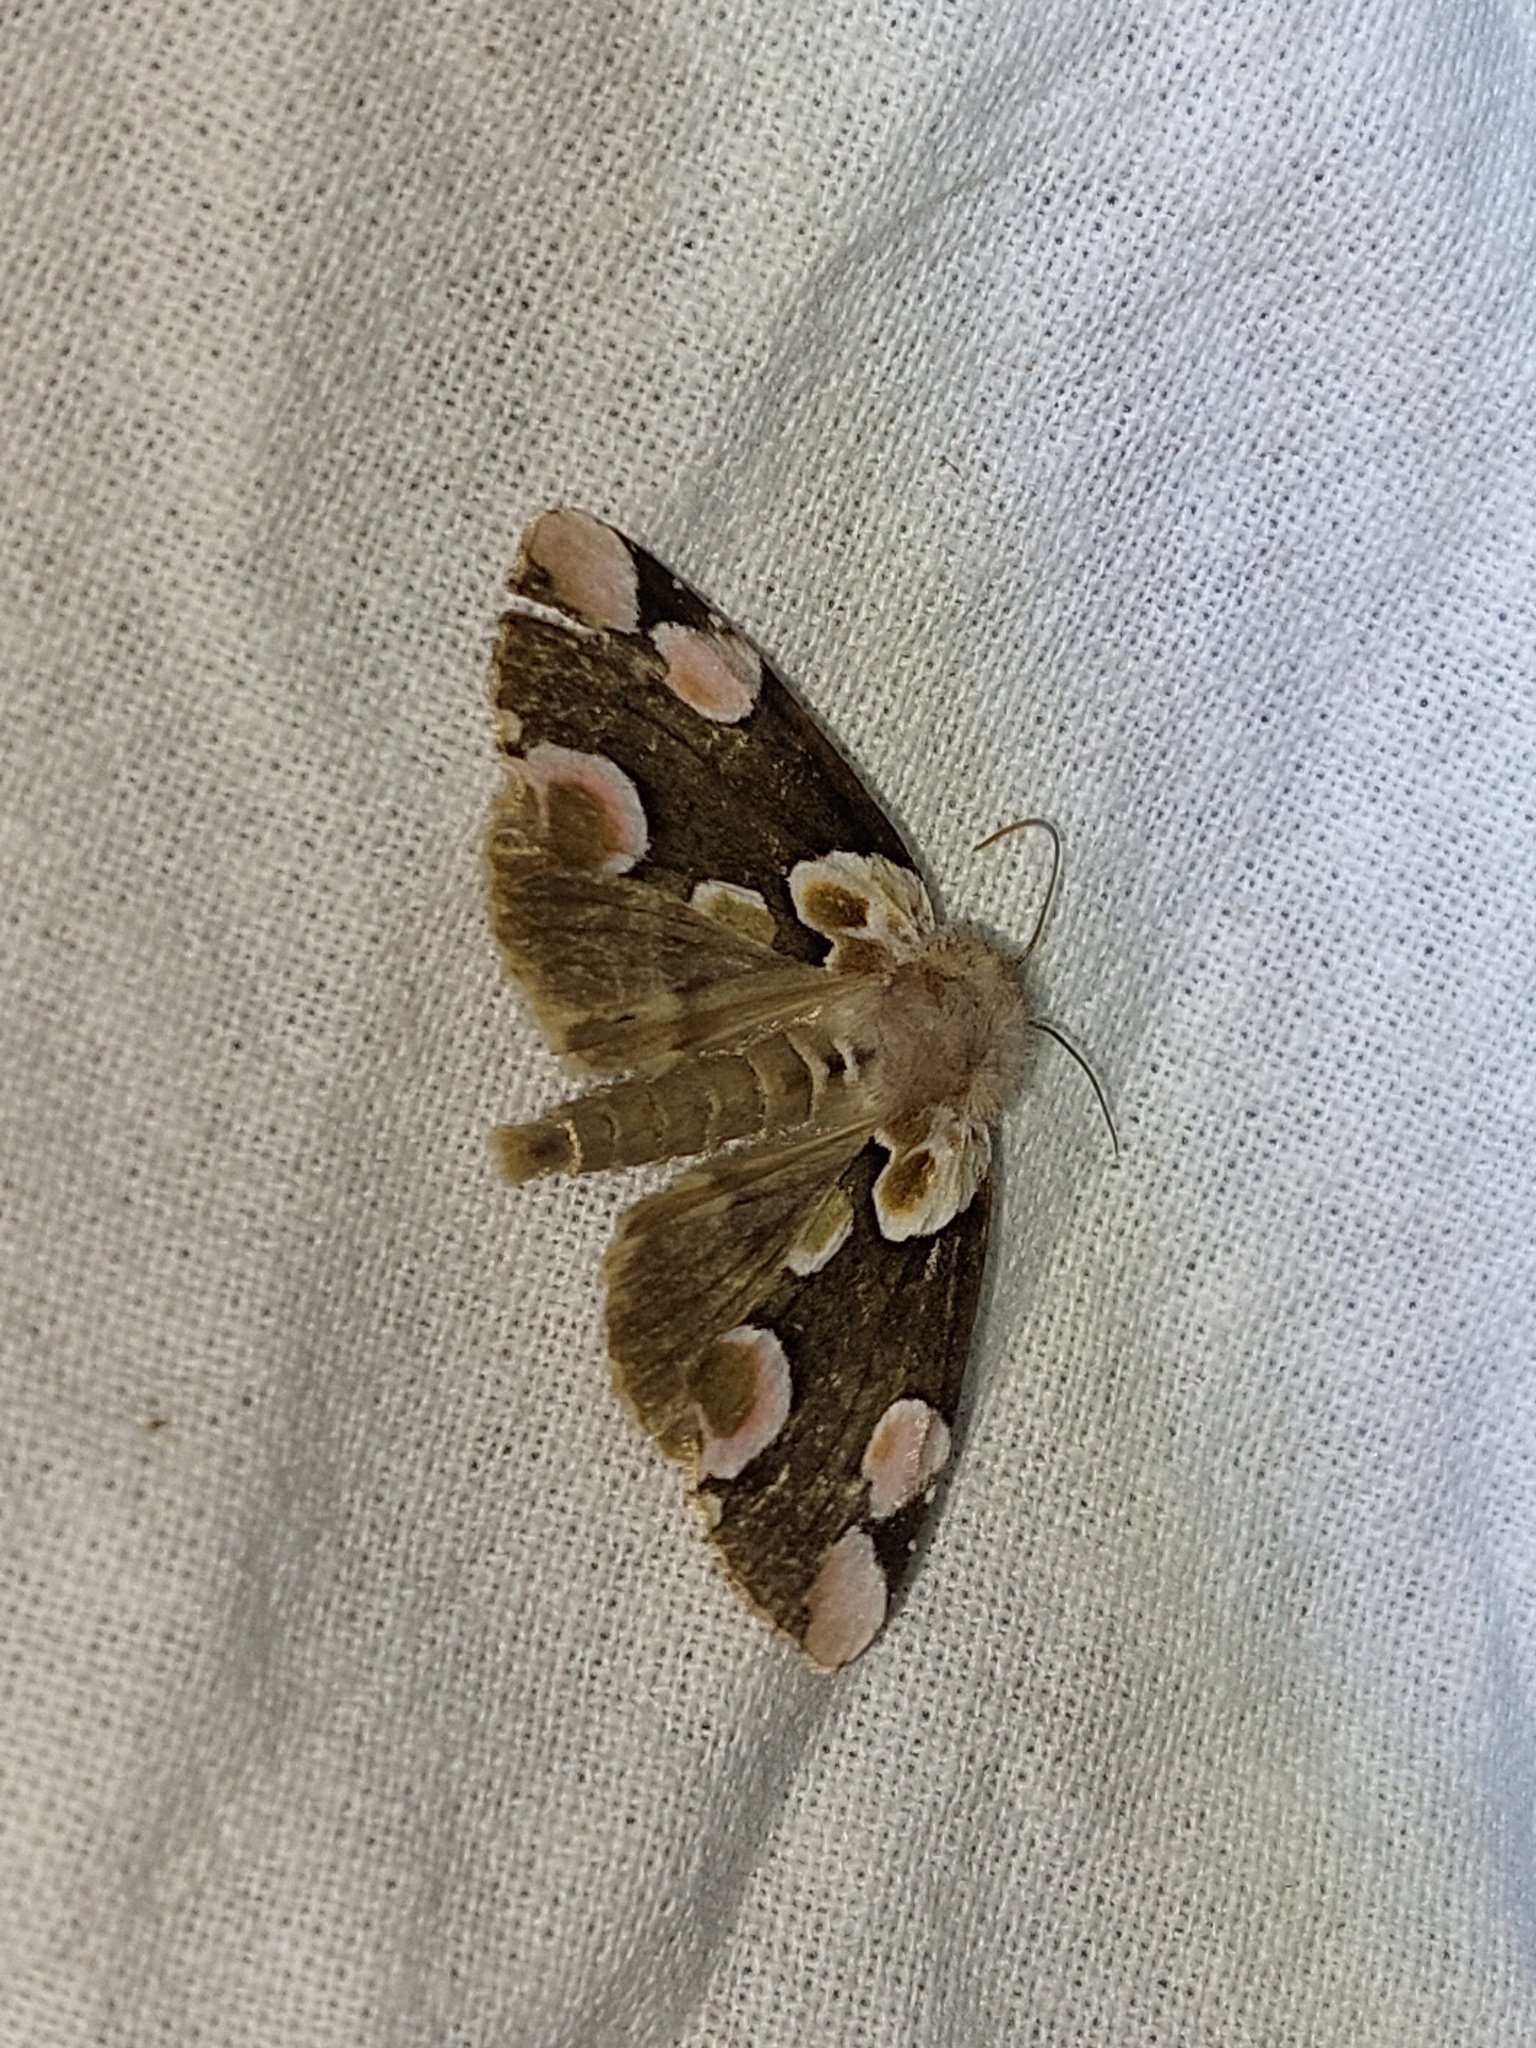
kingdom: Animalia
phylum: Arthropoda
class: Insecta
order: Lepidoptera
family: Drepanidae
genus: Thyatira
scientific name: Thyatira batis
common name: Peach blossom
